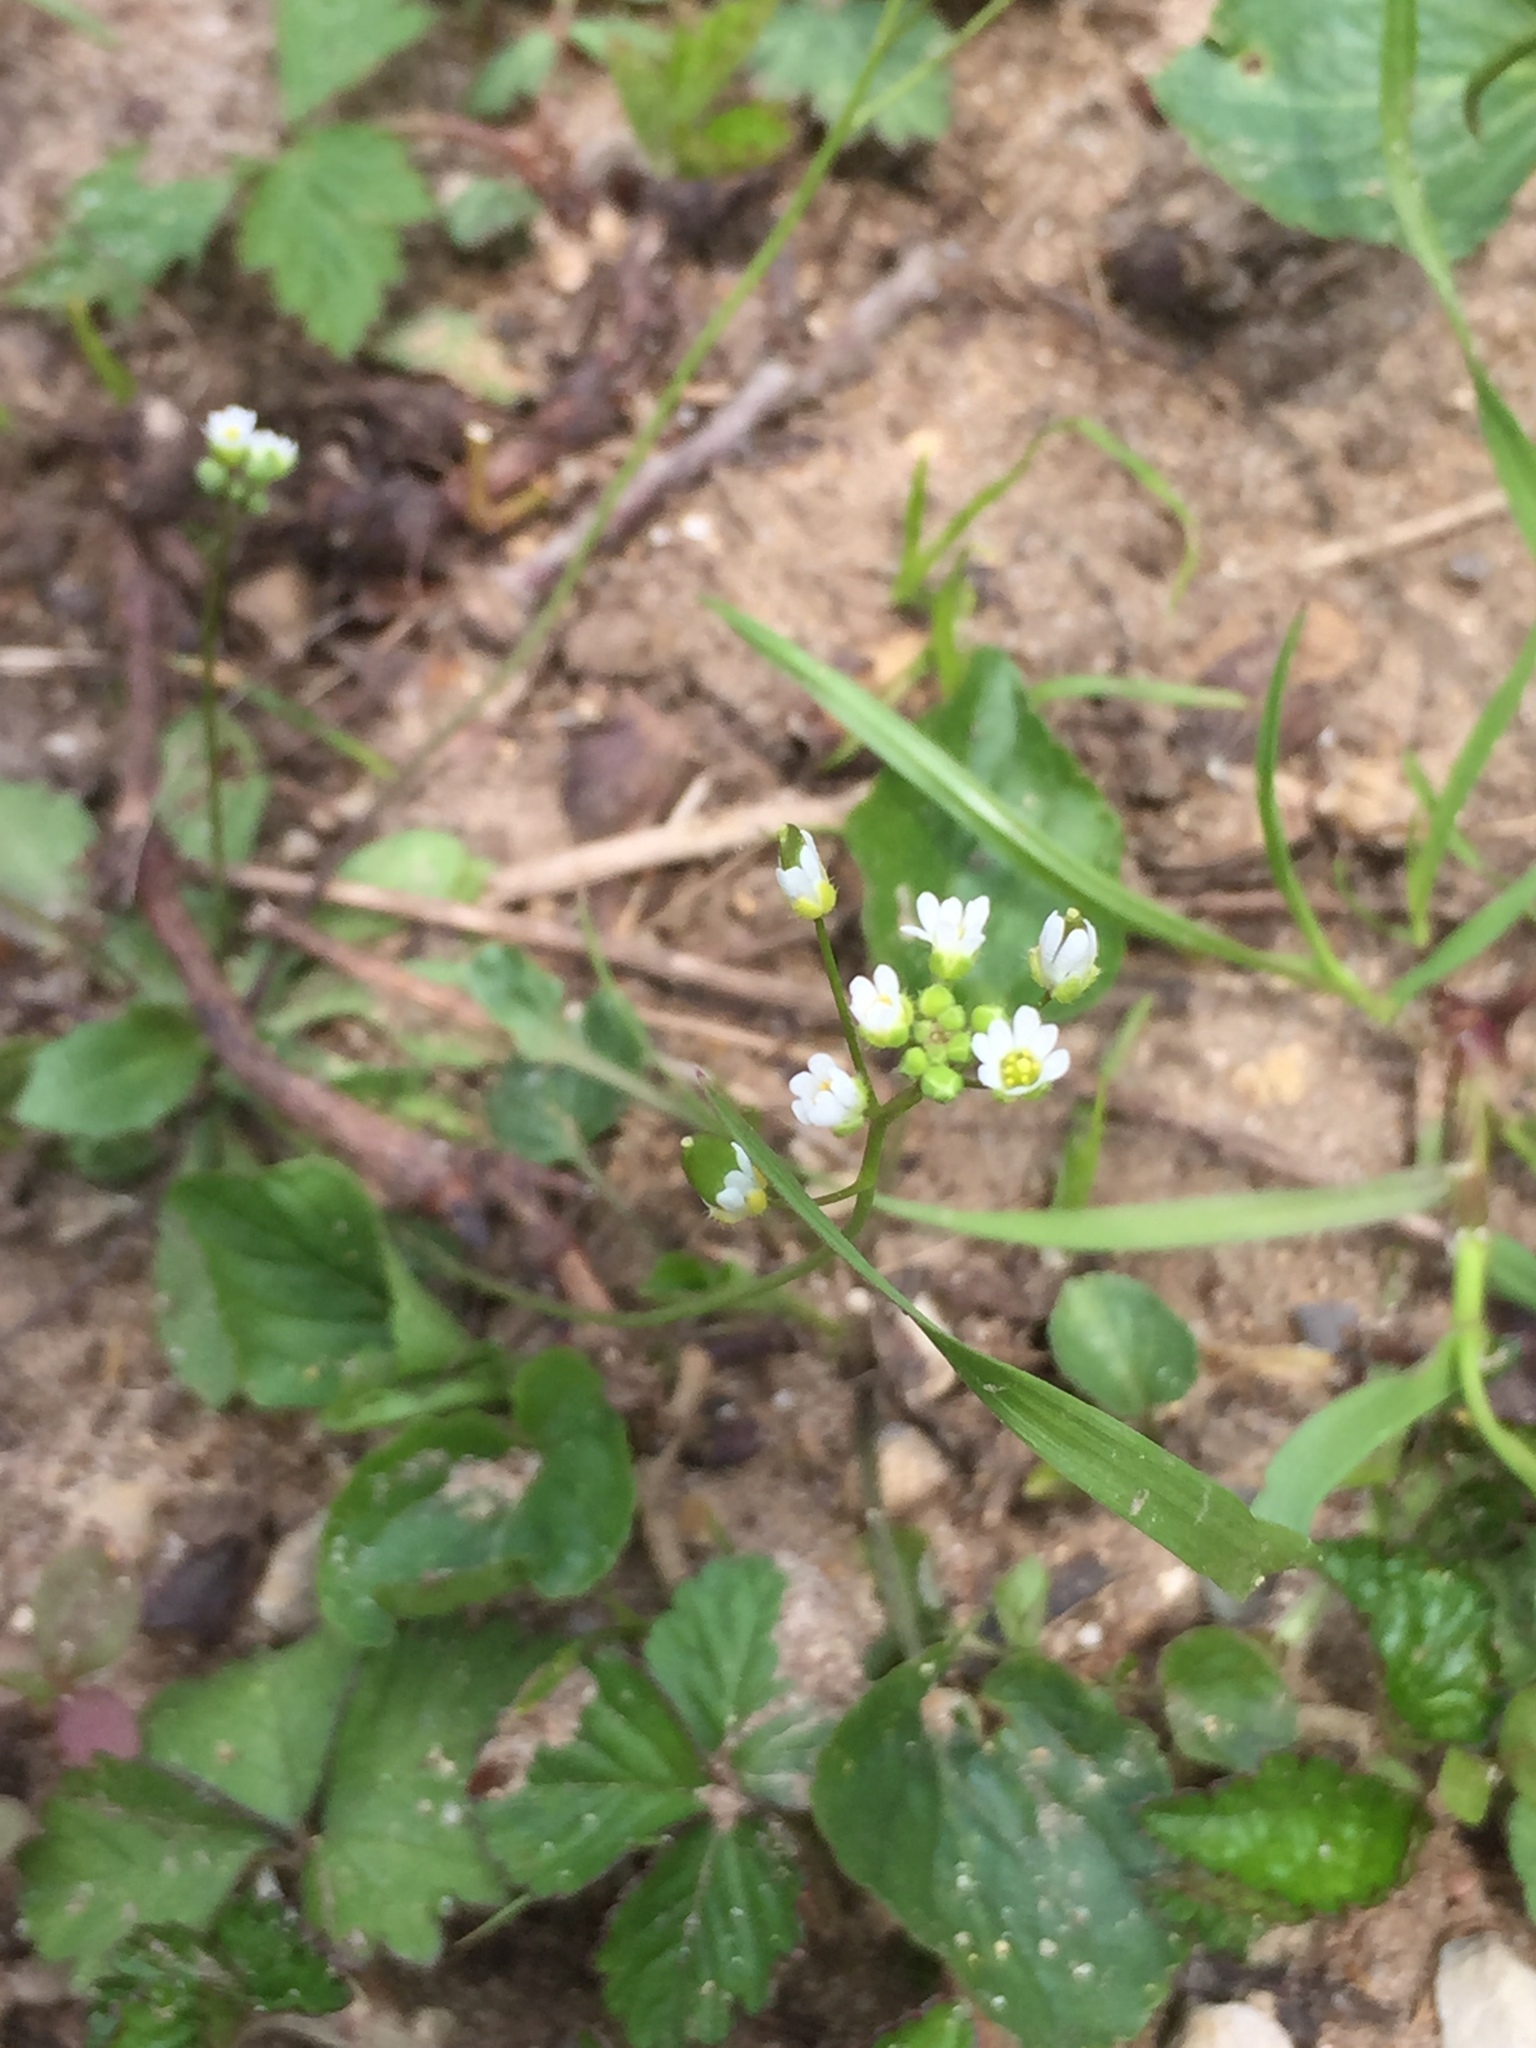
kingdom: Plantae
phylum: Tracheophyta
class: Magnoliopsida
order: Brassicales
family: Brassicaceae
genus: Draba
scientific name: Draba verna
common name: Spring draba
